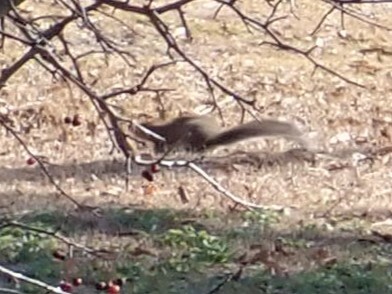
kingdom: Animalia
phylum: Chordata
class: Mammalia
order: Rodentia
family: Sciuridae
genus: Sciurus
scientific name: Sciurus carolinensis
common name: Eastern gray squirrel
